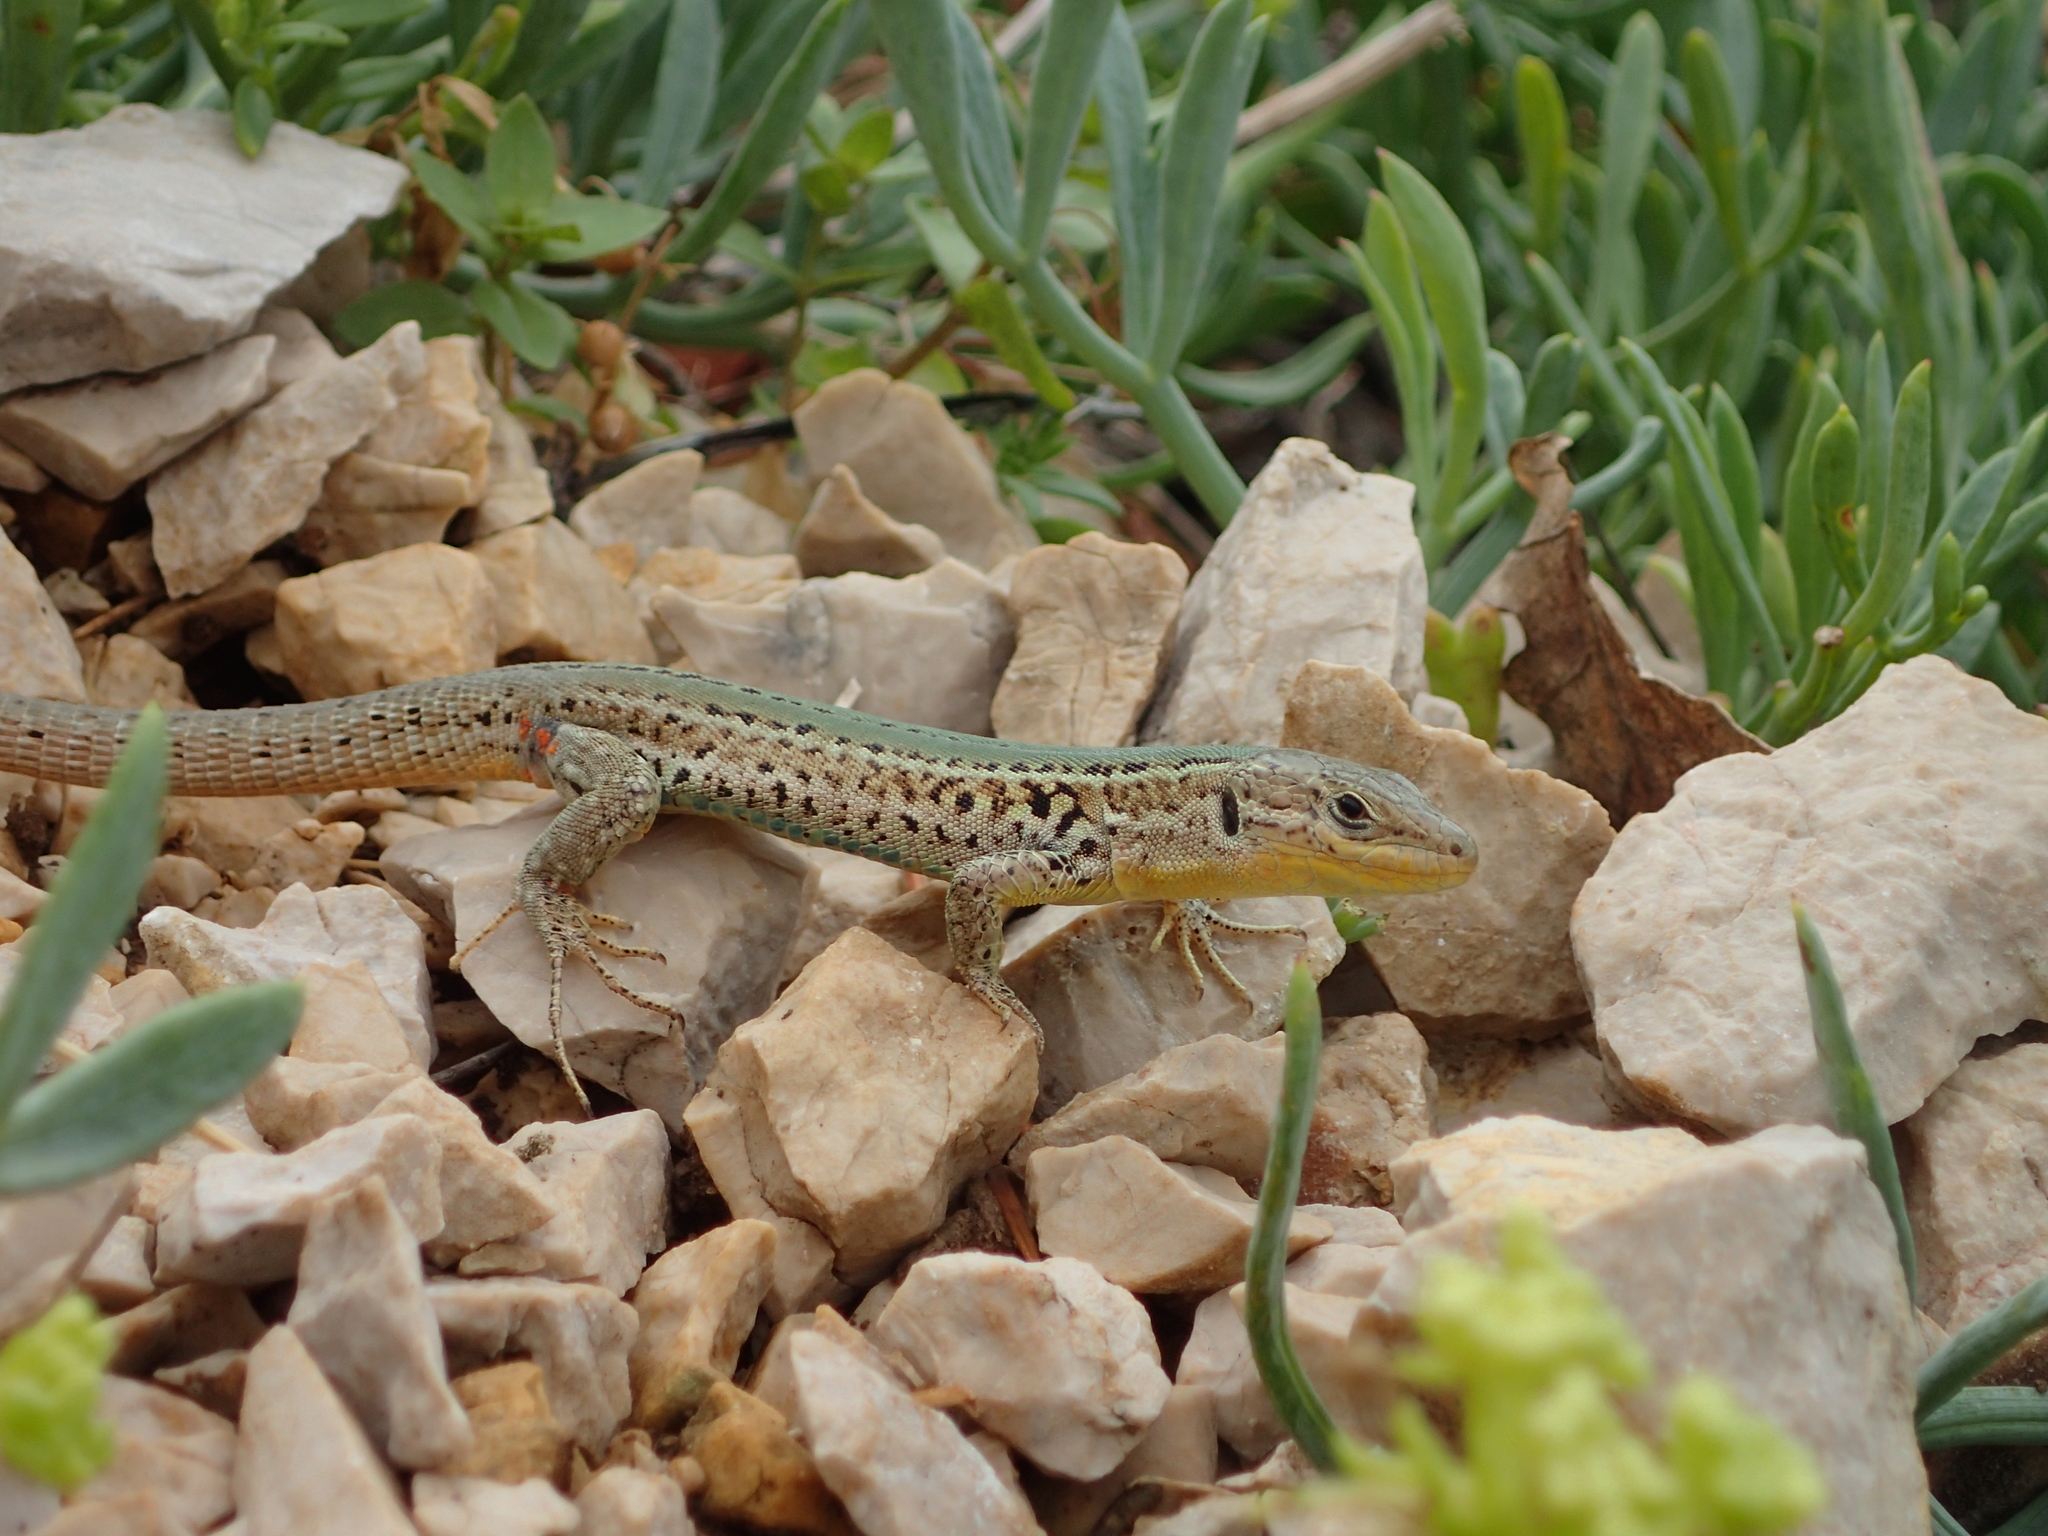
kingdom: Animalia
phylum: Chordata
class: Squamata
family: Lacertidae
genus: Podarcis
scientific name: Podarcis melisellensis
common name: Dalmatian wall lizard
